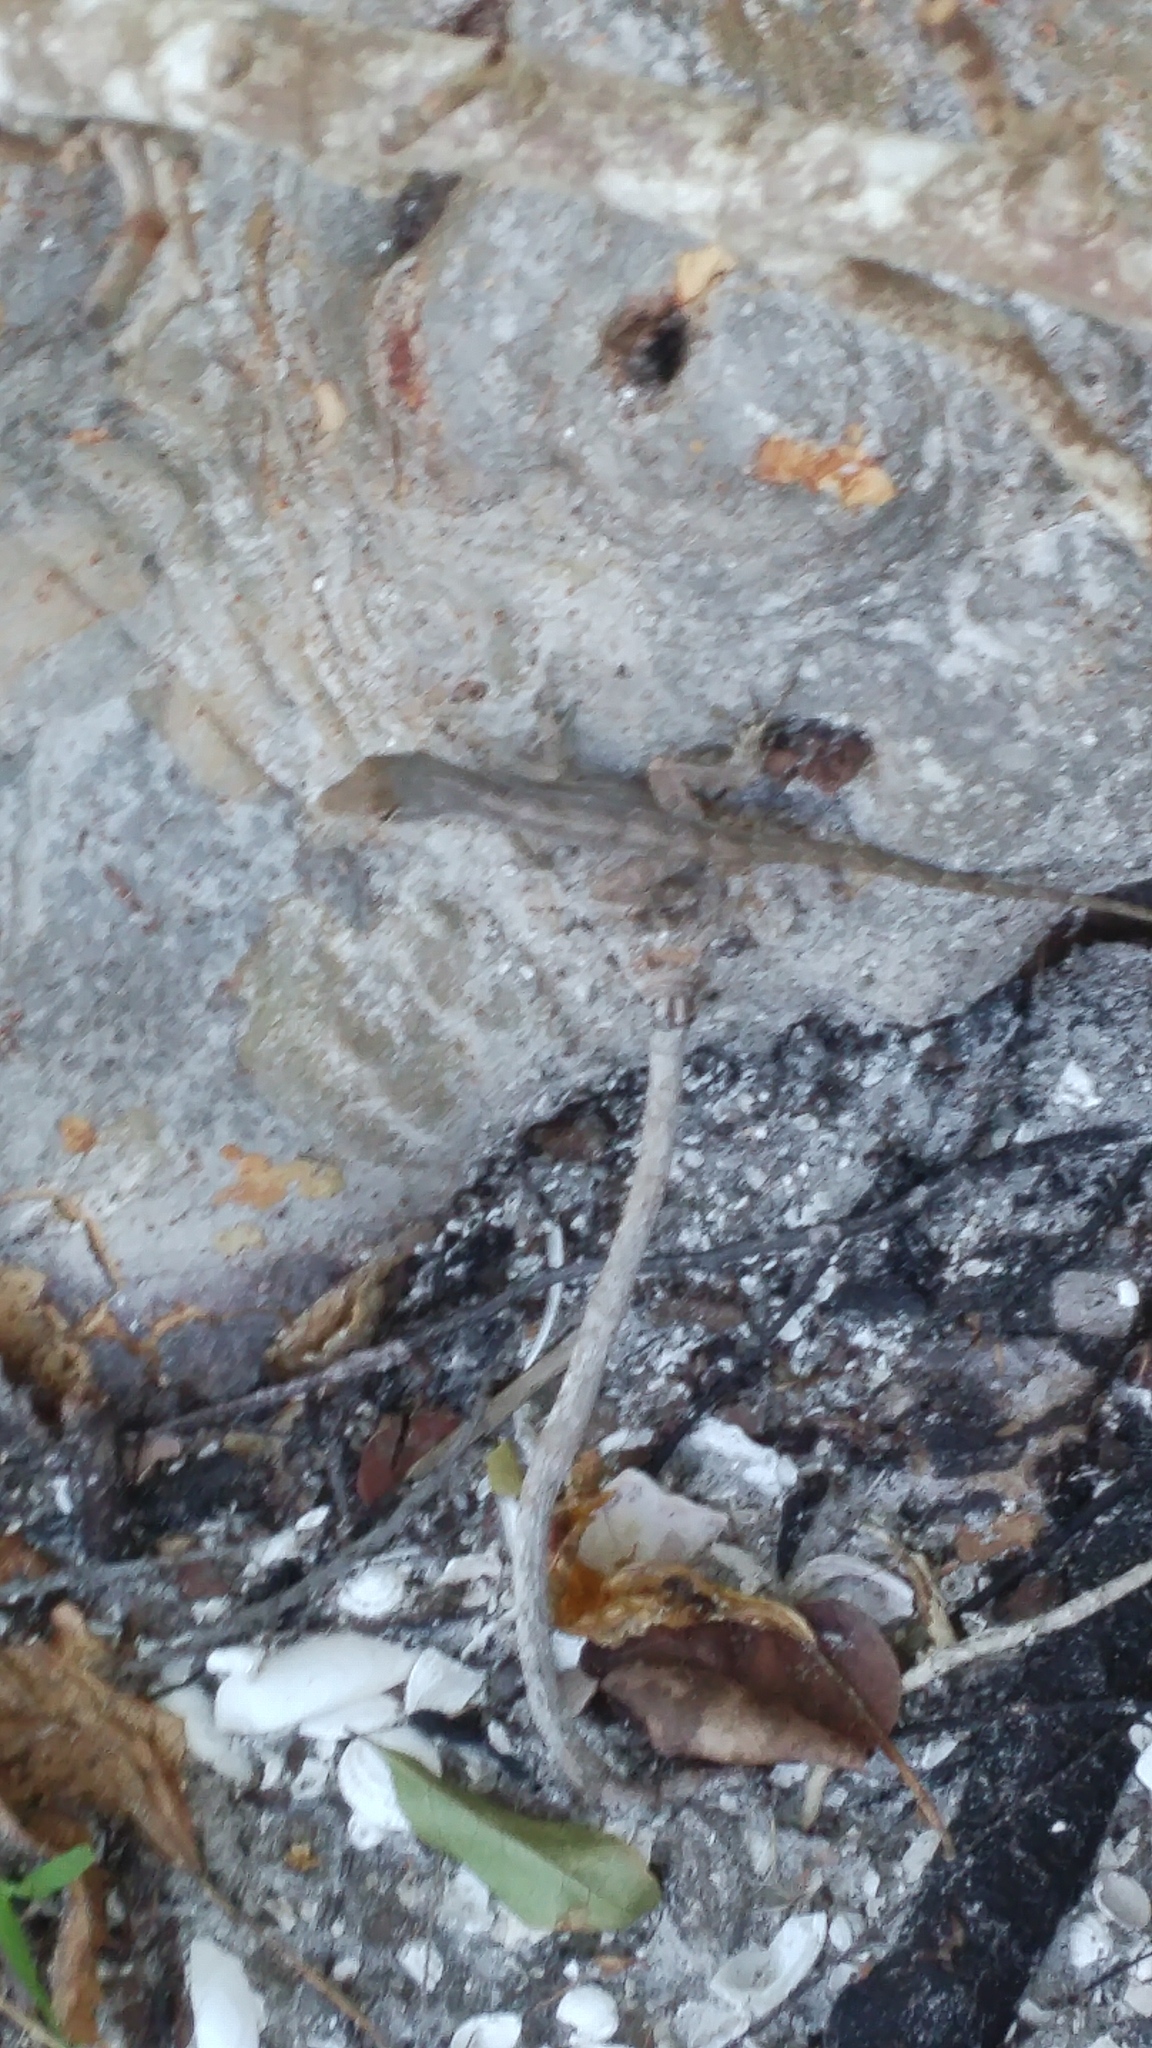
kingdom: Animalia
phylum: Chordata
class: Squamata
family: Dactyloidae
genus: Anolis
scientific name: Anolis sagrei
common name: Brown anole
